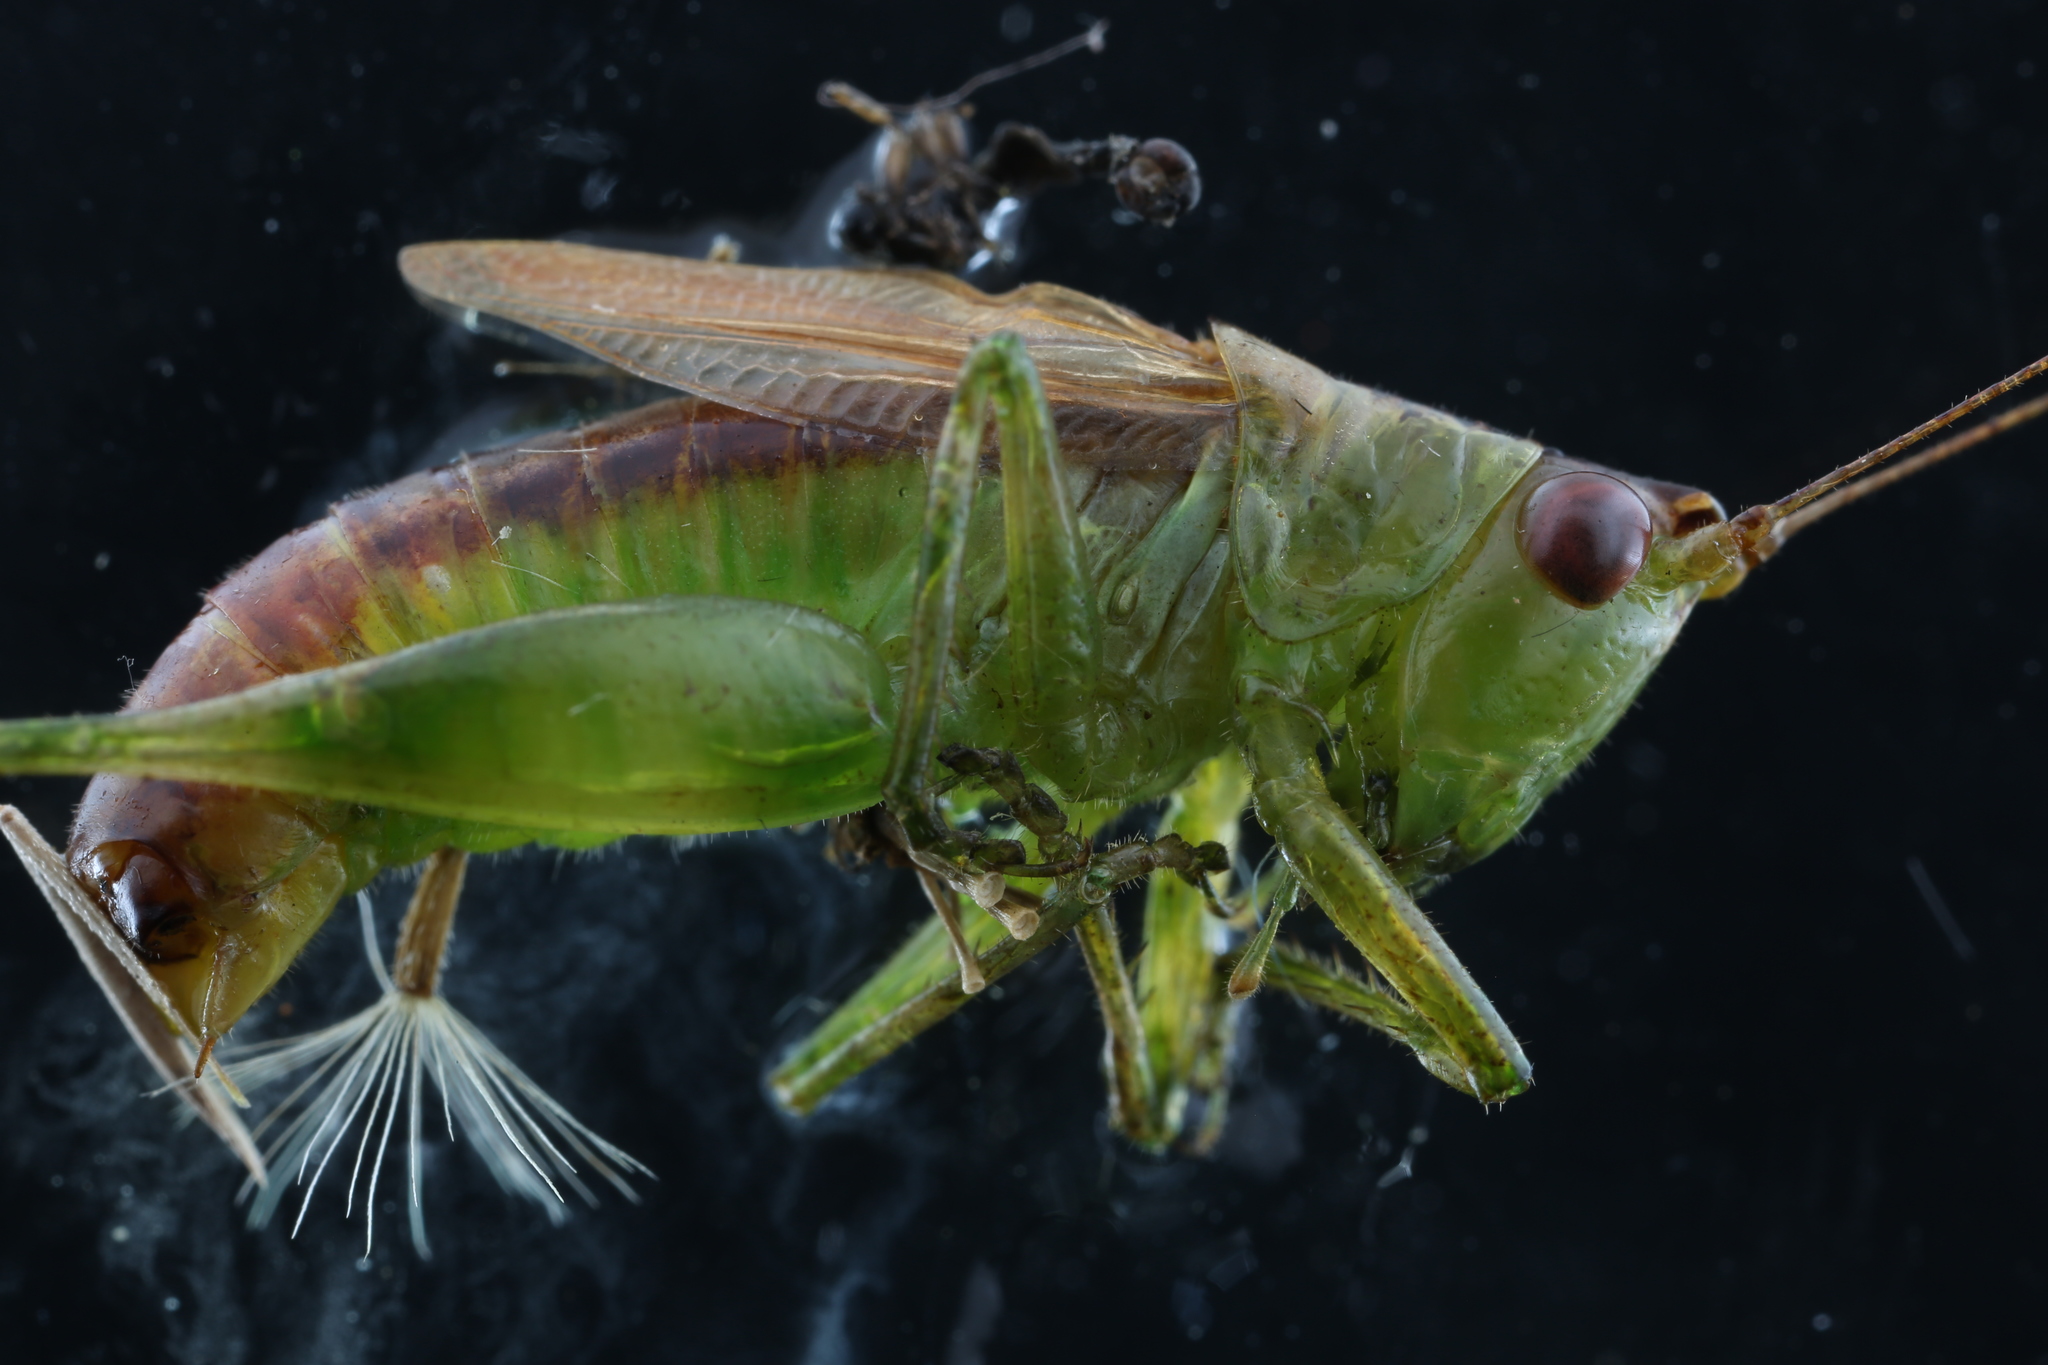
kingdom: Animalia
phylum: Arthropoda
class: Insecta
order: Orthoptera
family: Tettigoniidae
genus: Conocephalus
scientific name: Conocephalus brevipennis
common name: Short-winged meadow katydid
